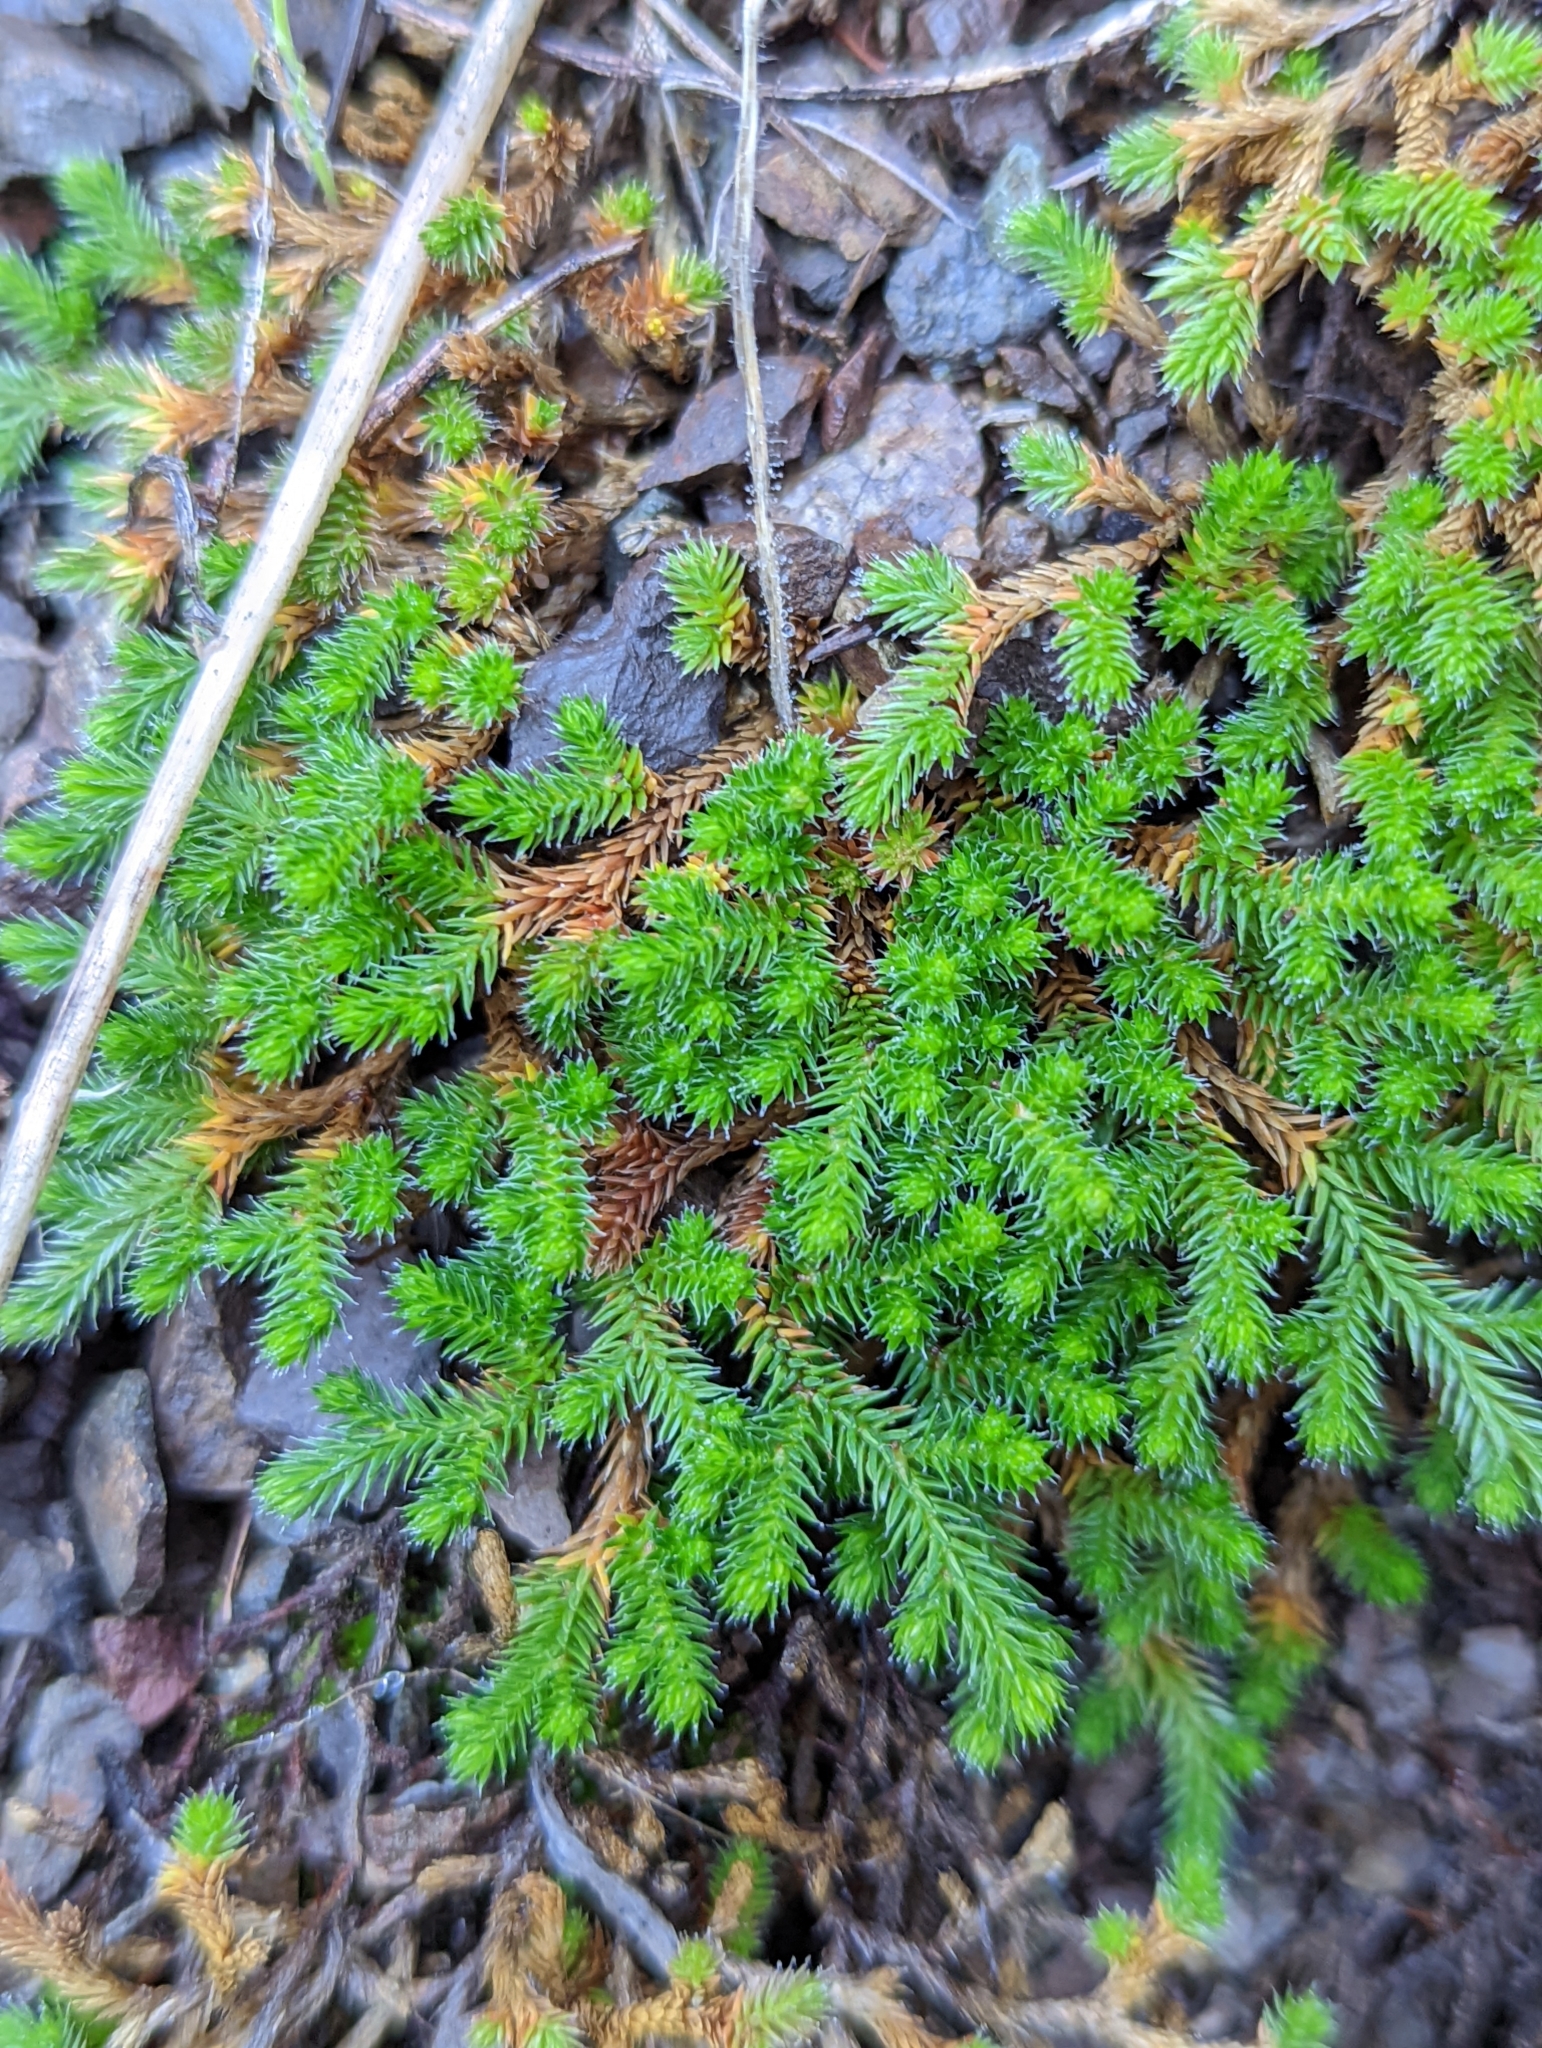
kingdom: Plantae
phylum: Tracheophyta
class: Lycopodiopsida
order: Selaginellales
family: Selaginellaceae
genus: Selaginella
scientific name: Selaginella wallacei
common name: Wallace's selaginella
